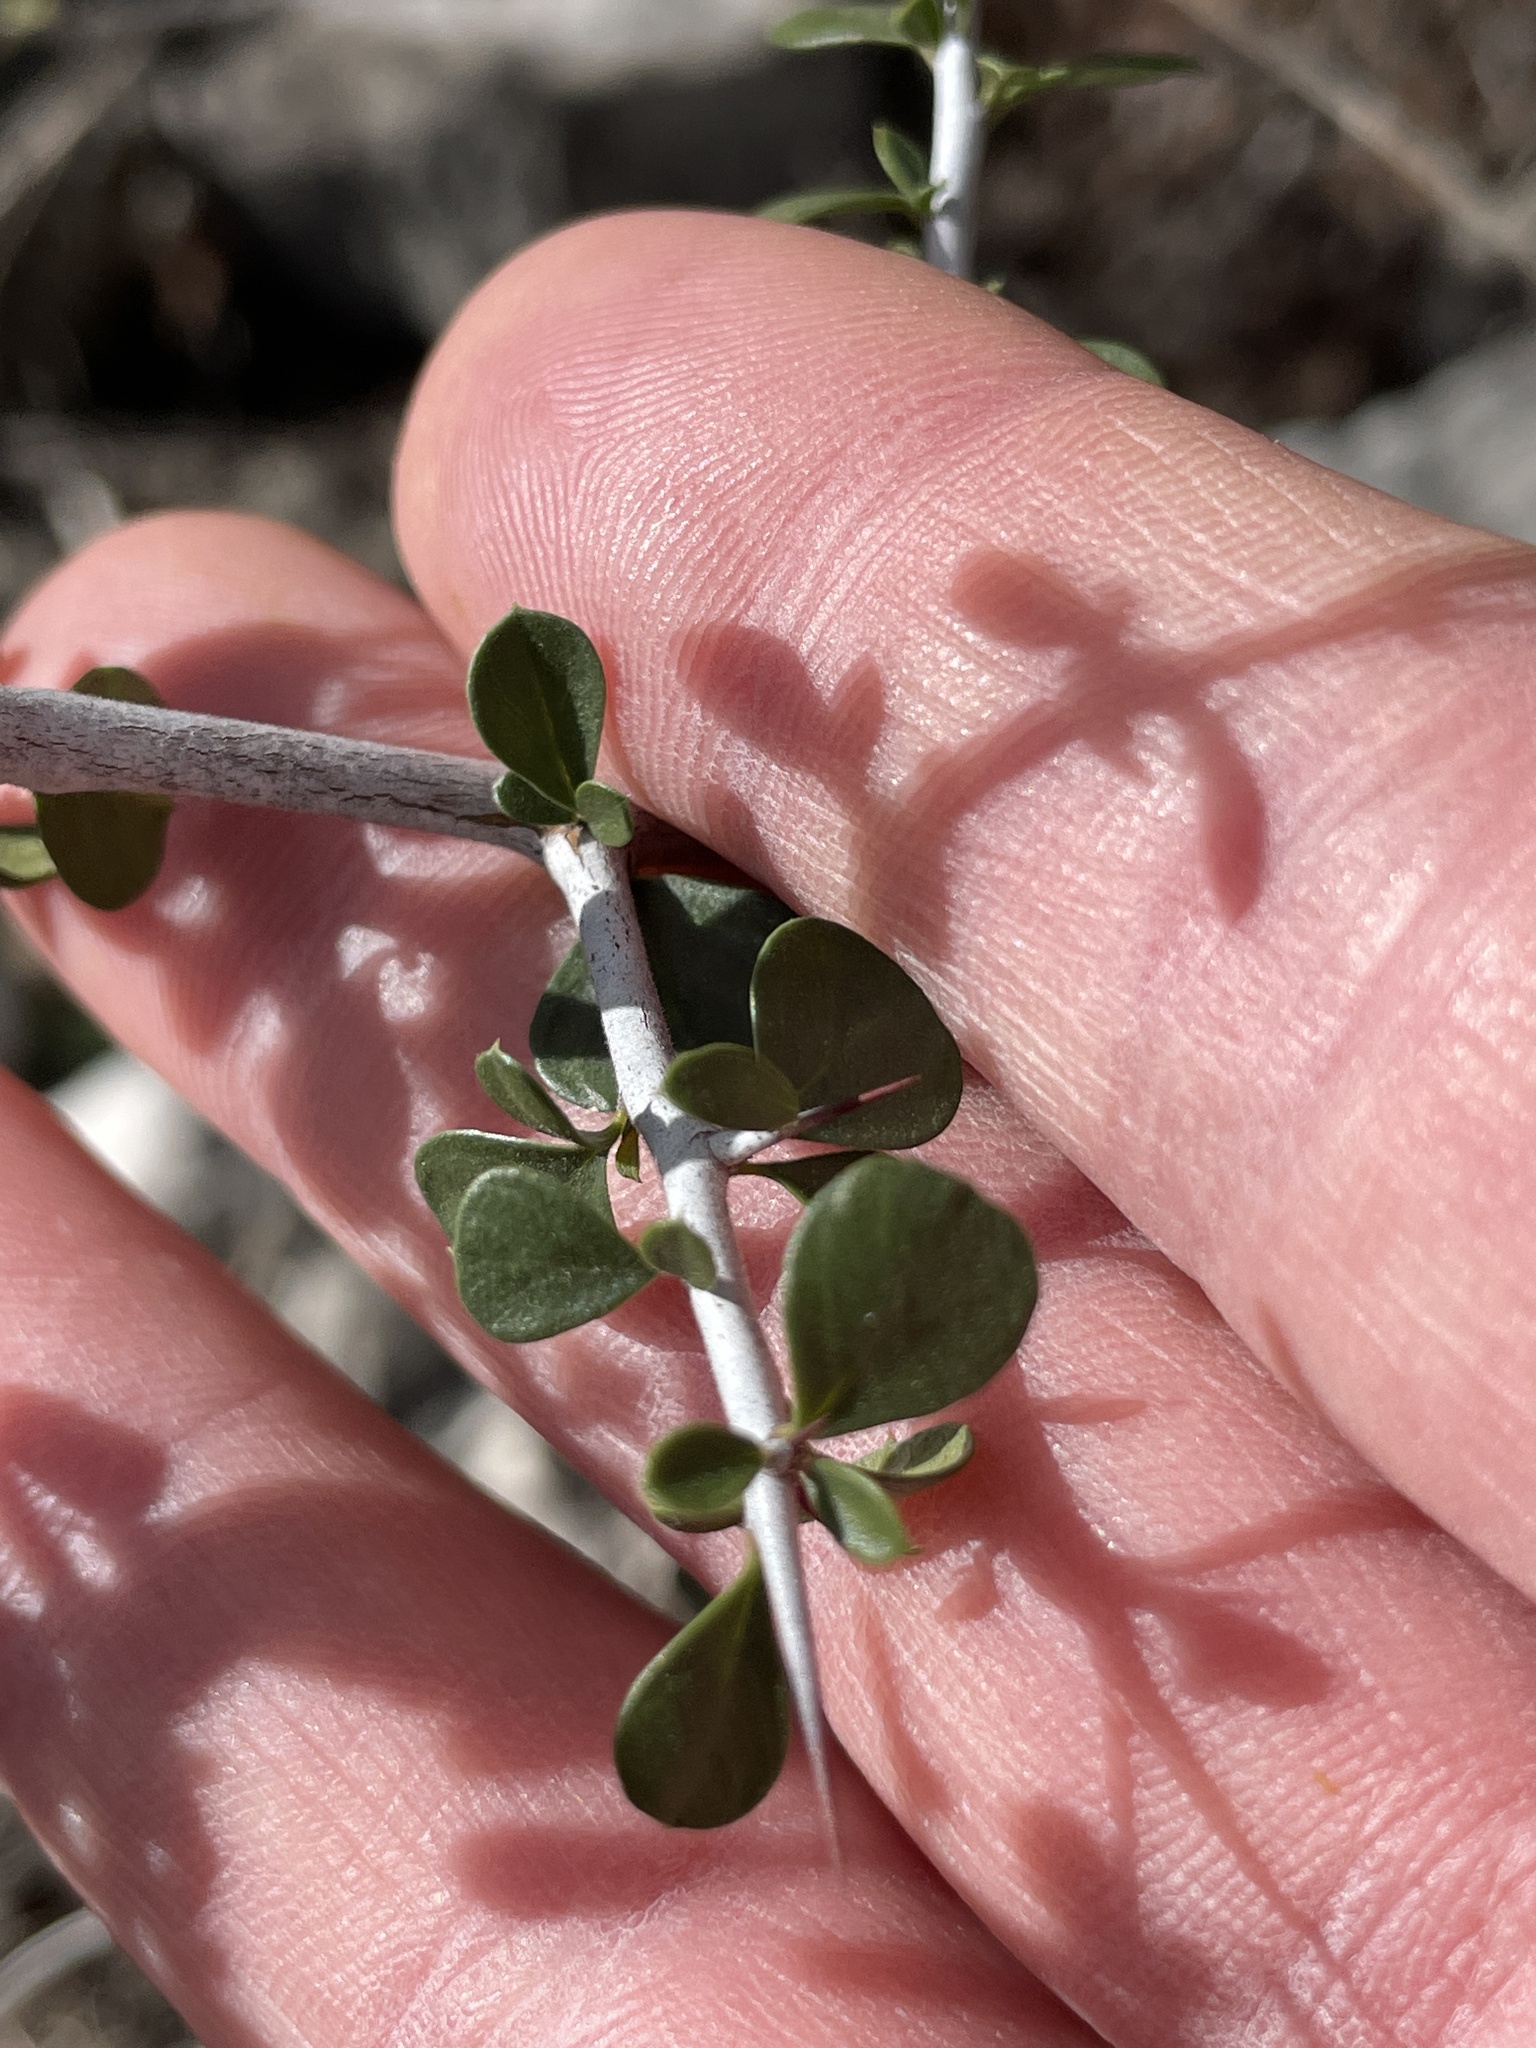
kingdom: Plantae
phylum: Tracheophyta
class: Magnoliopsida
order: Rosales
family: Rhamnaceae
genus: Condalia
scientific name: Condalia viridis
